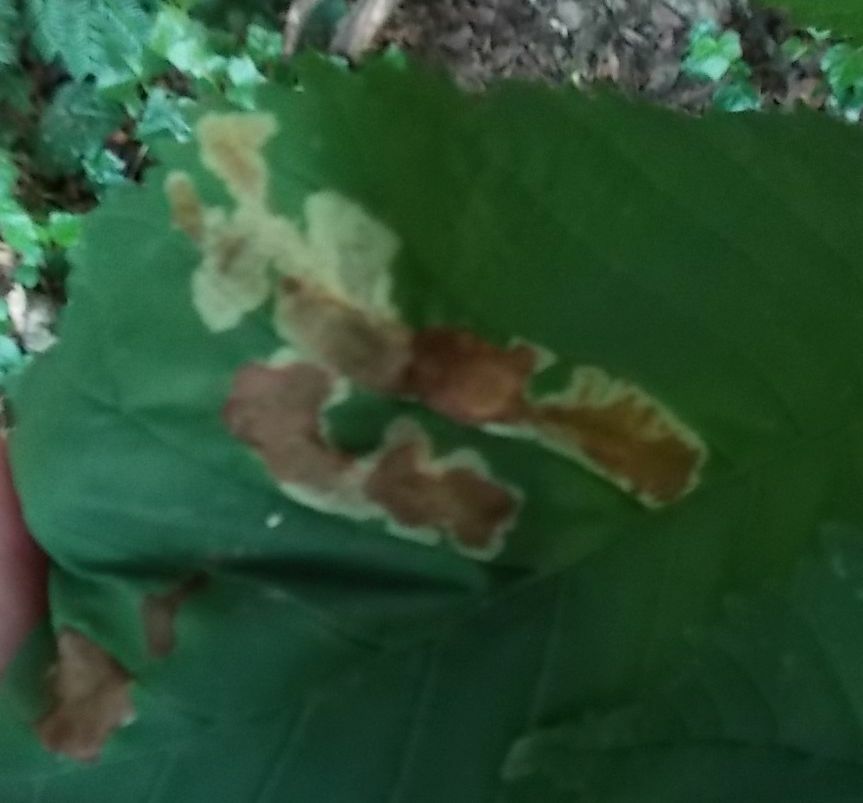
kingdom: Animalia
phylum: Arthropoda
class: Insecta
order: Lepidoptera
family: Gracillariidae
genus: Cameraria
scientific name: Cameraria ohridella
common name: Horse-chestnut leaf-miner
